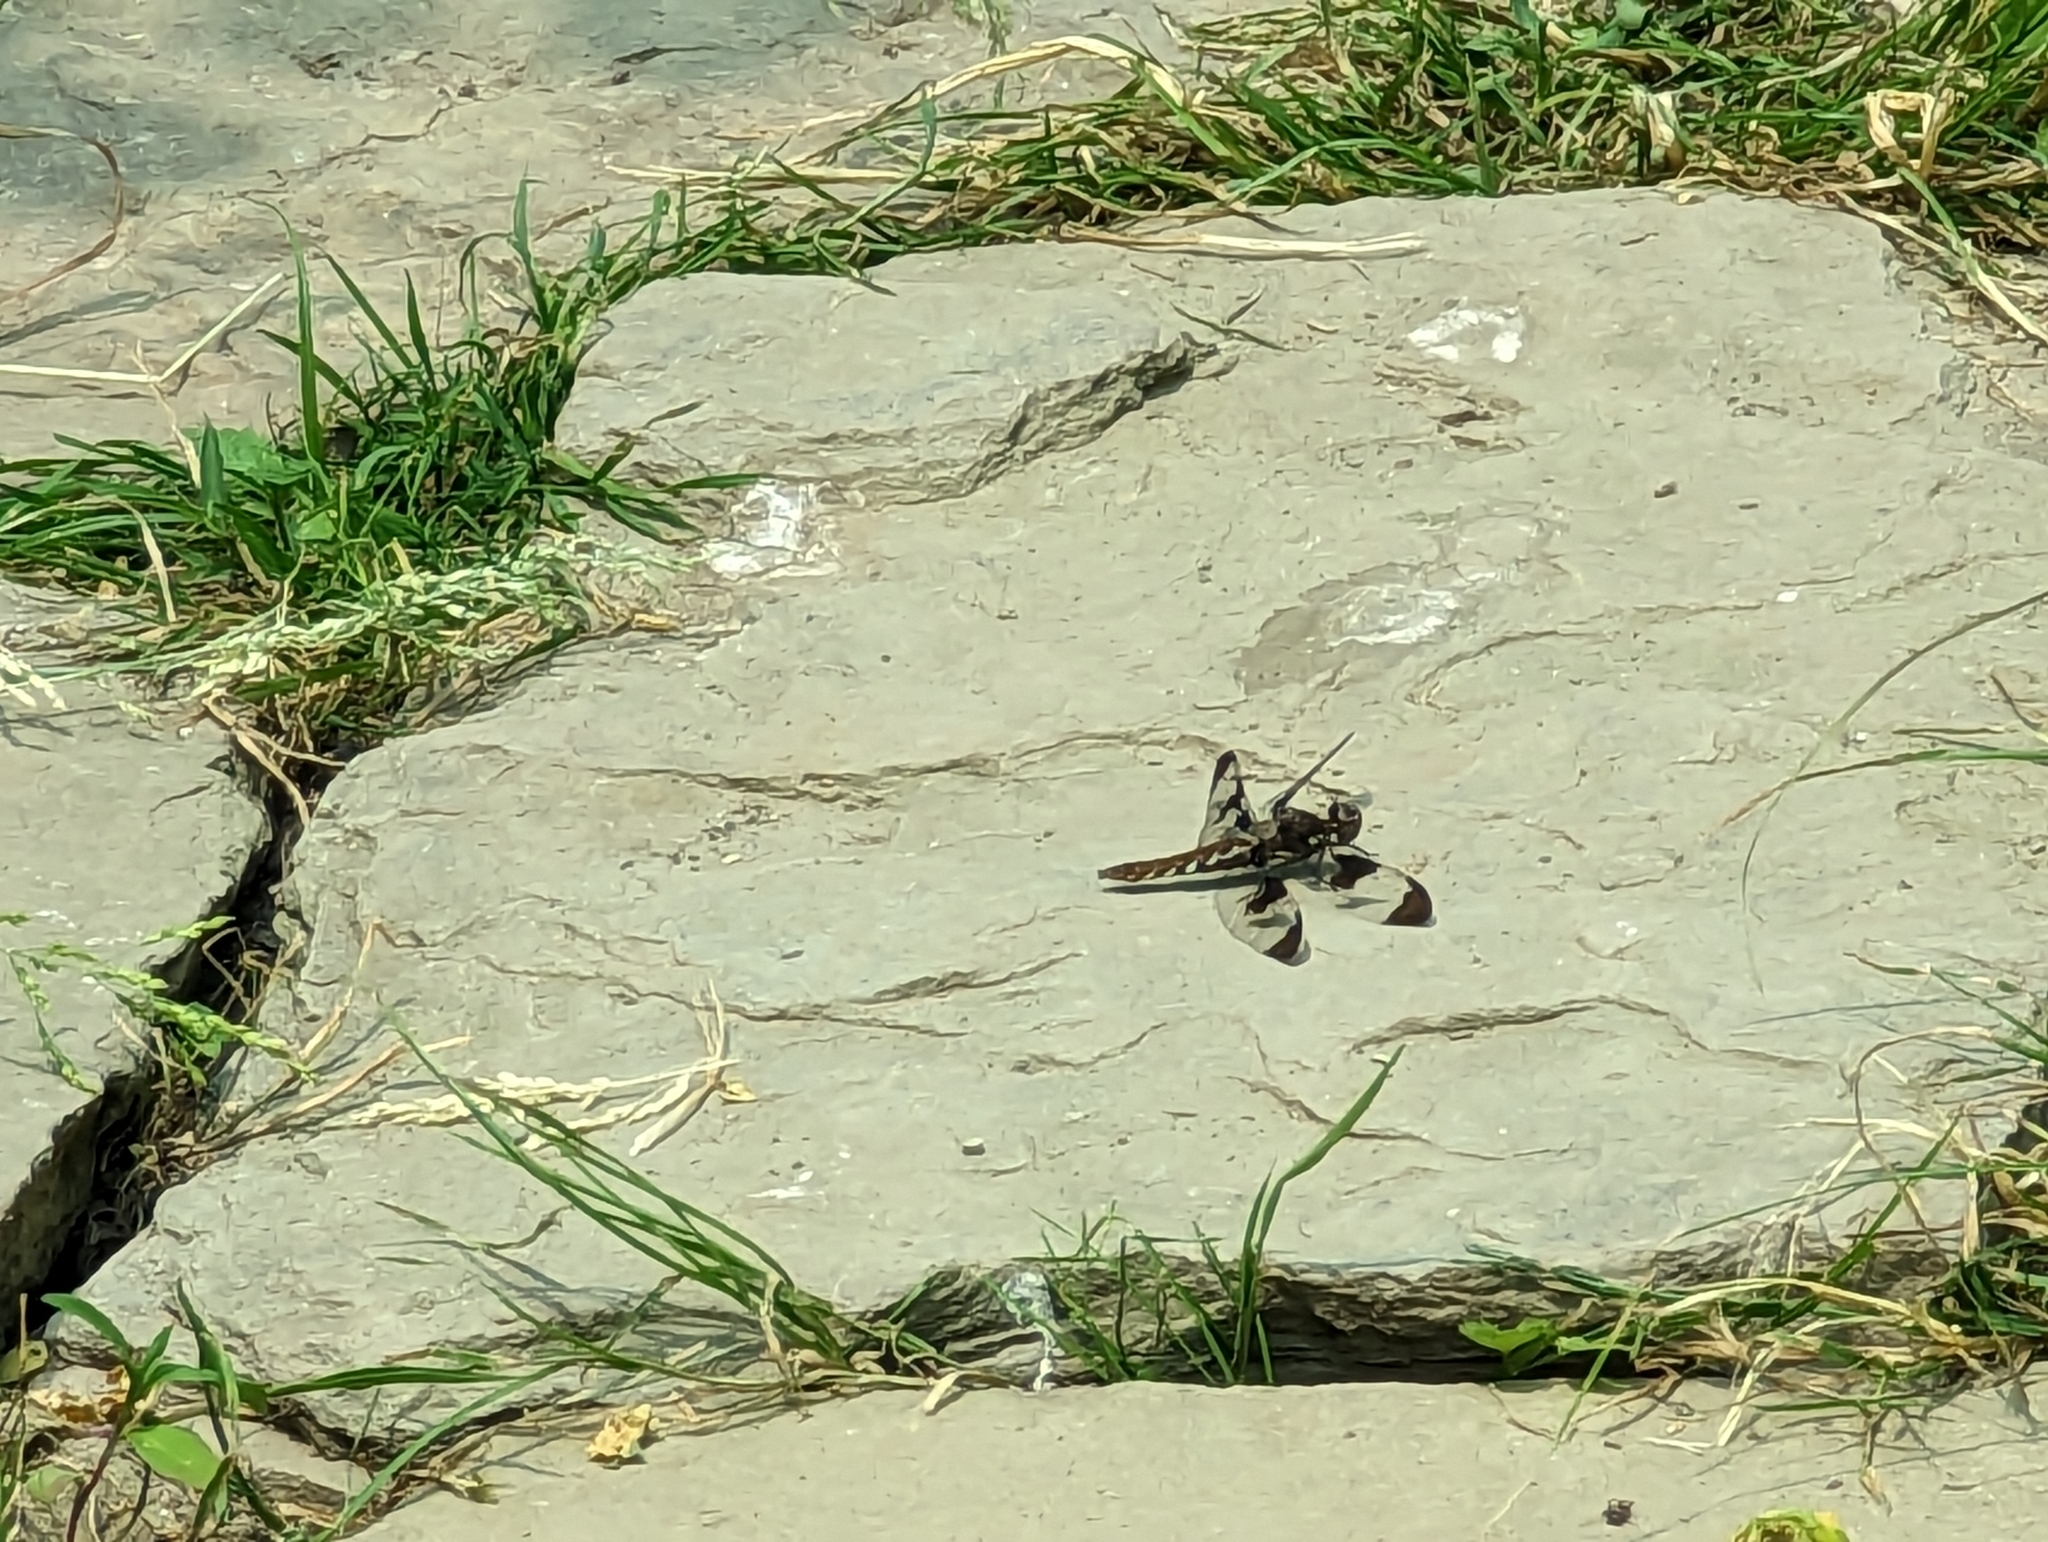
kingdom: Animalia
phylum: Arthropoda
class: Insecta
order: Odonata
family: Libellulidae
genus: Plathemis
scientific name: Plathemis lydia
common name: Common whitetail
